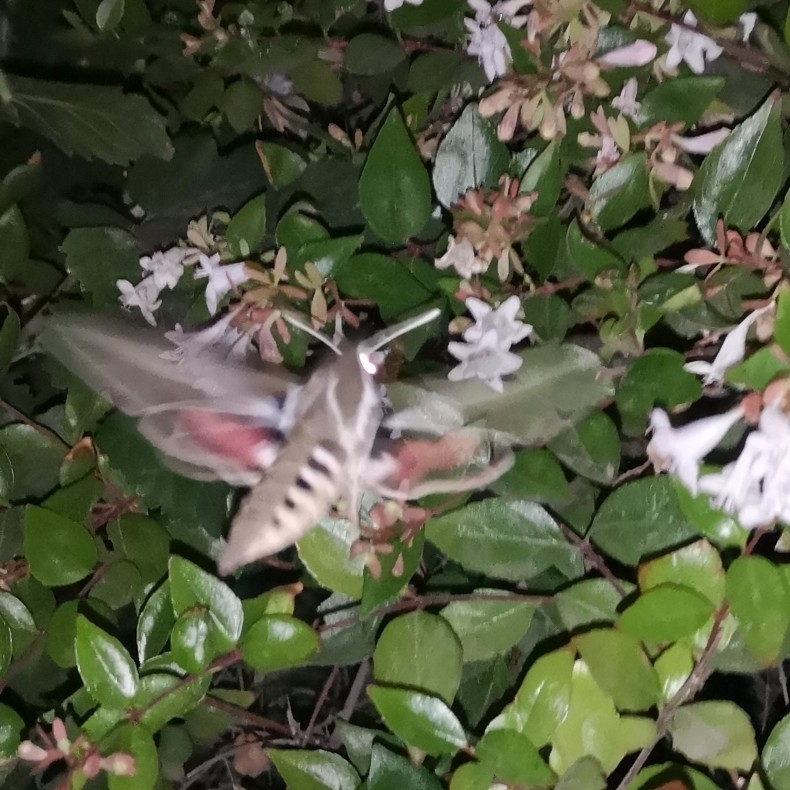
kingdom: Animalia
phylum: Arthropoda
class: Insecta
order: Lepidoptera
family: Sphingidae
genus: Hyles
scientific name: Hyles annei
